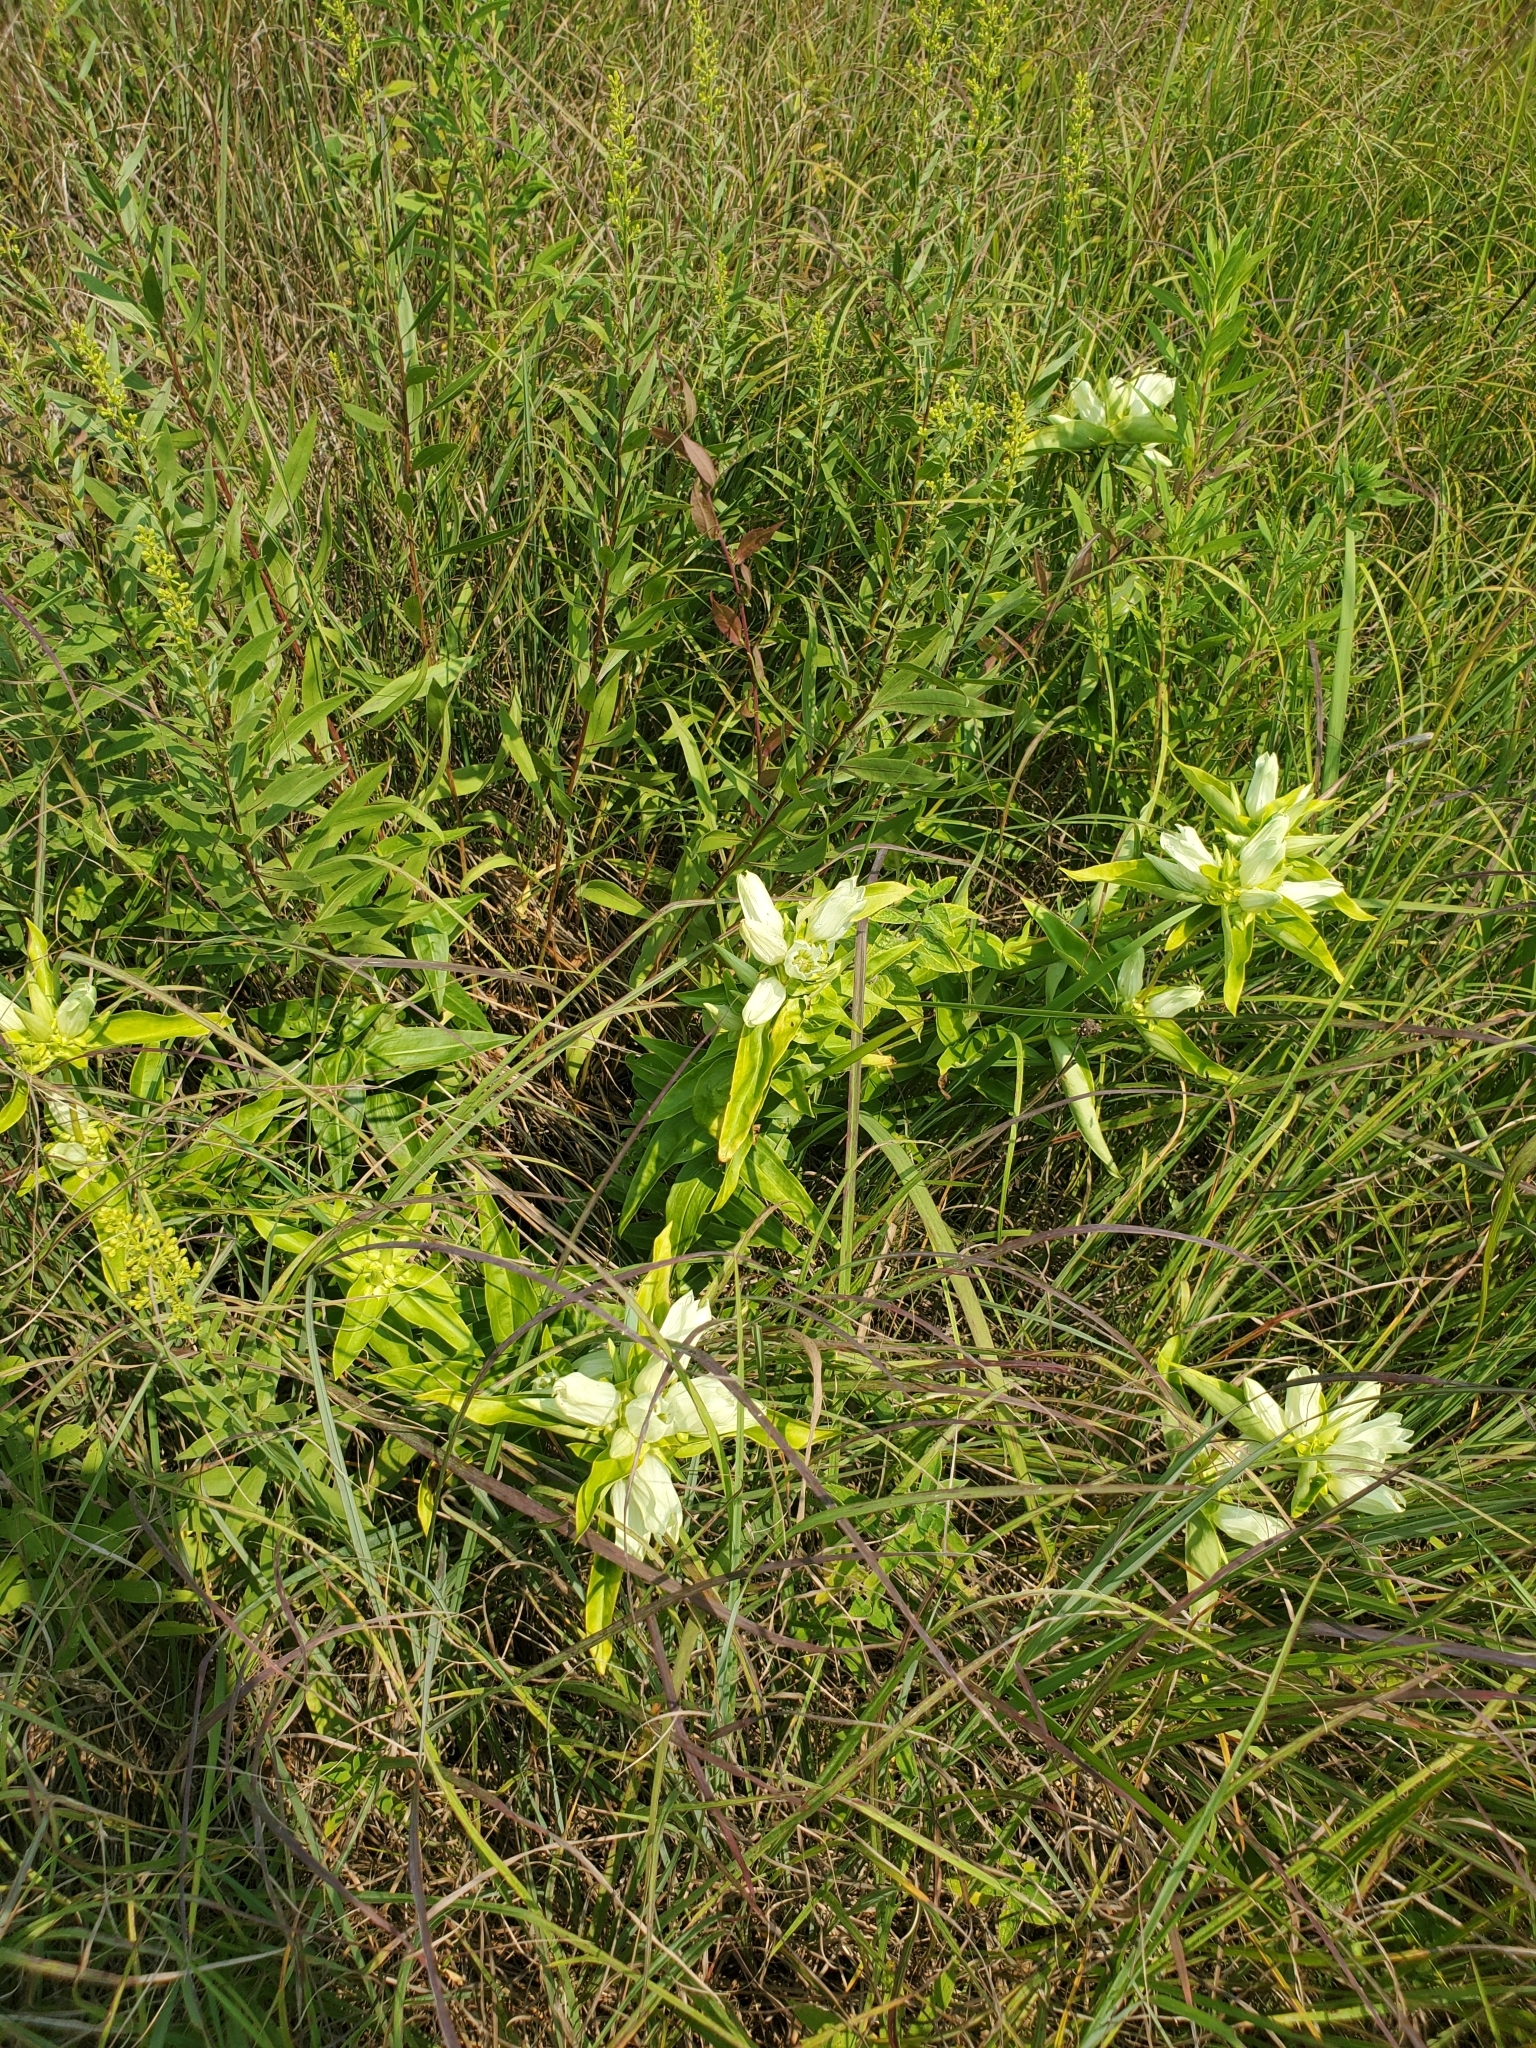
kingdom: Plantae
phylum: Tracheophyta
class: Magnoliopsida
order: Gentianales
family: Gentianaceae
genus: Gentiana
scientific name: Gentiana alba
